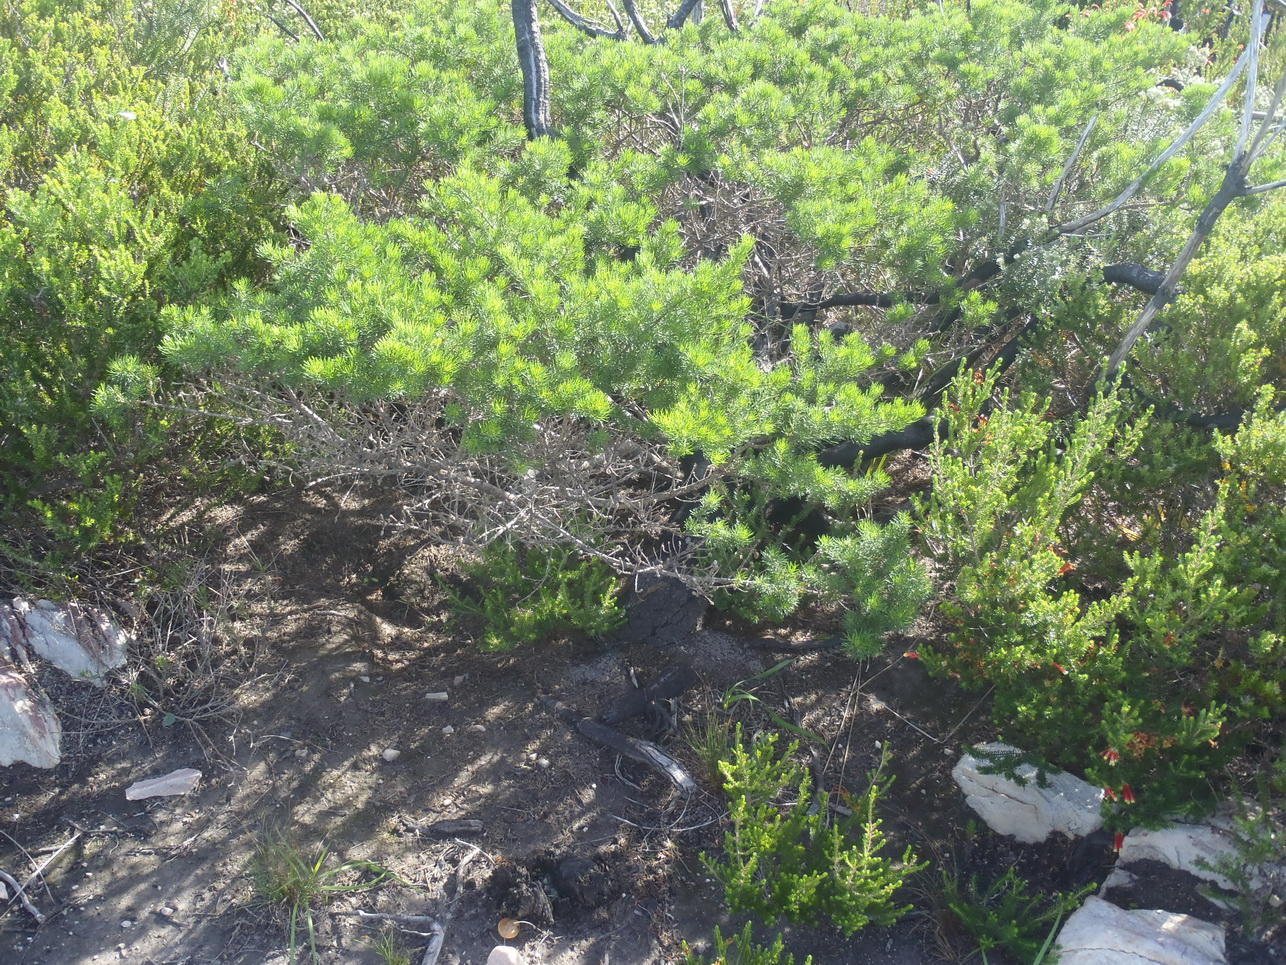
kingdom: Plantae
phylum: Tracheophyta
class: Magnoliopsida
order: Fabales
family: Fabaceae
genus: Psoralea
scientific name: Psoralea vanberkelae
